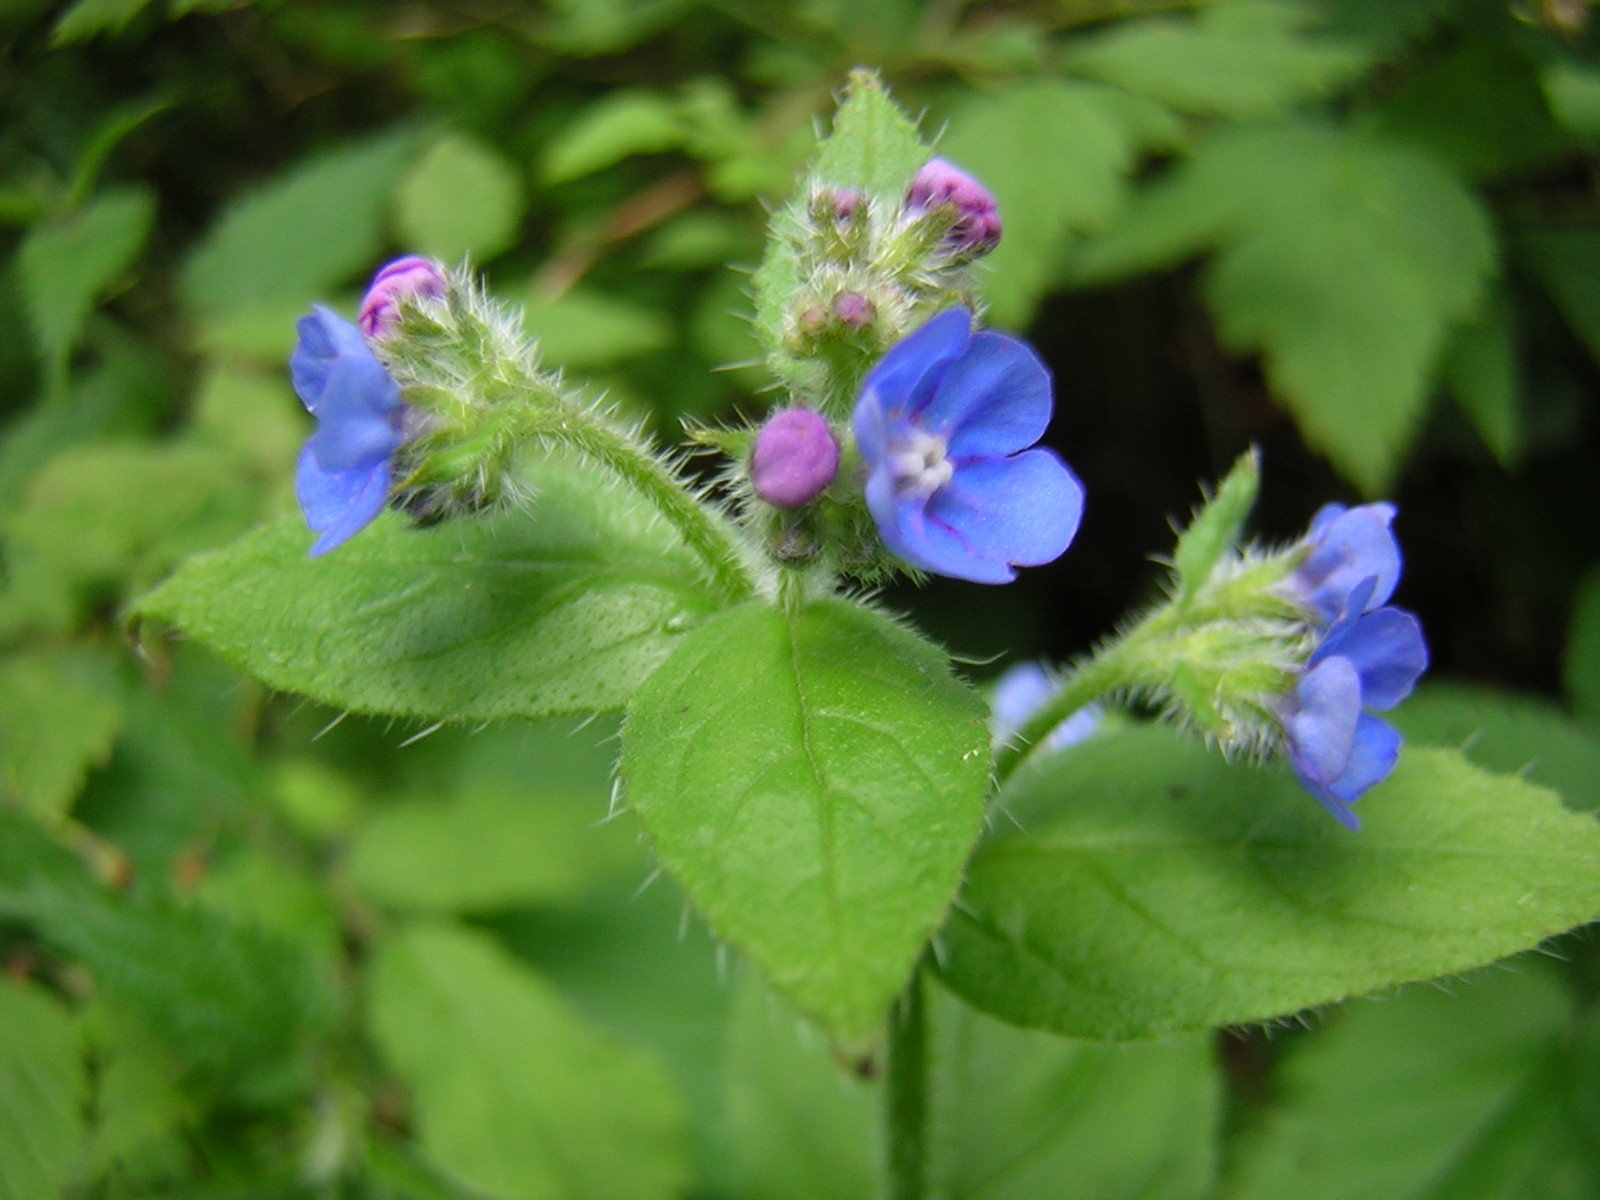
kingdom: Plantae
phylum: Tracheophyta
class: Magnoliopsida
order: Boraginales
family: Boraginaceae
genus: Pentaglottis
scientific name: Pentaglottis sempervirens
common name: Green alkanet
